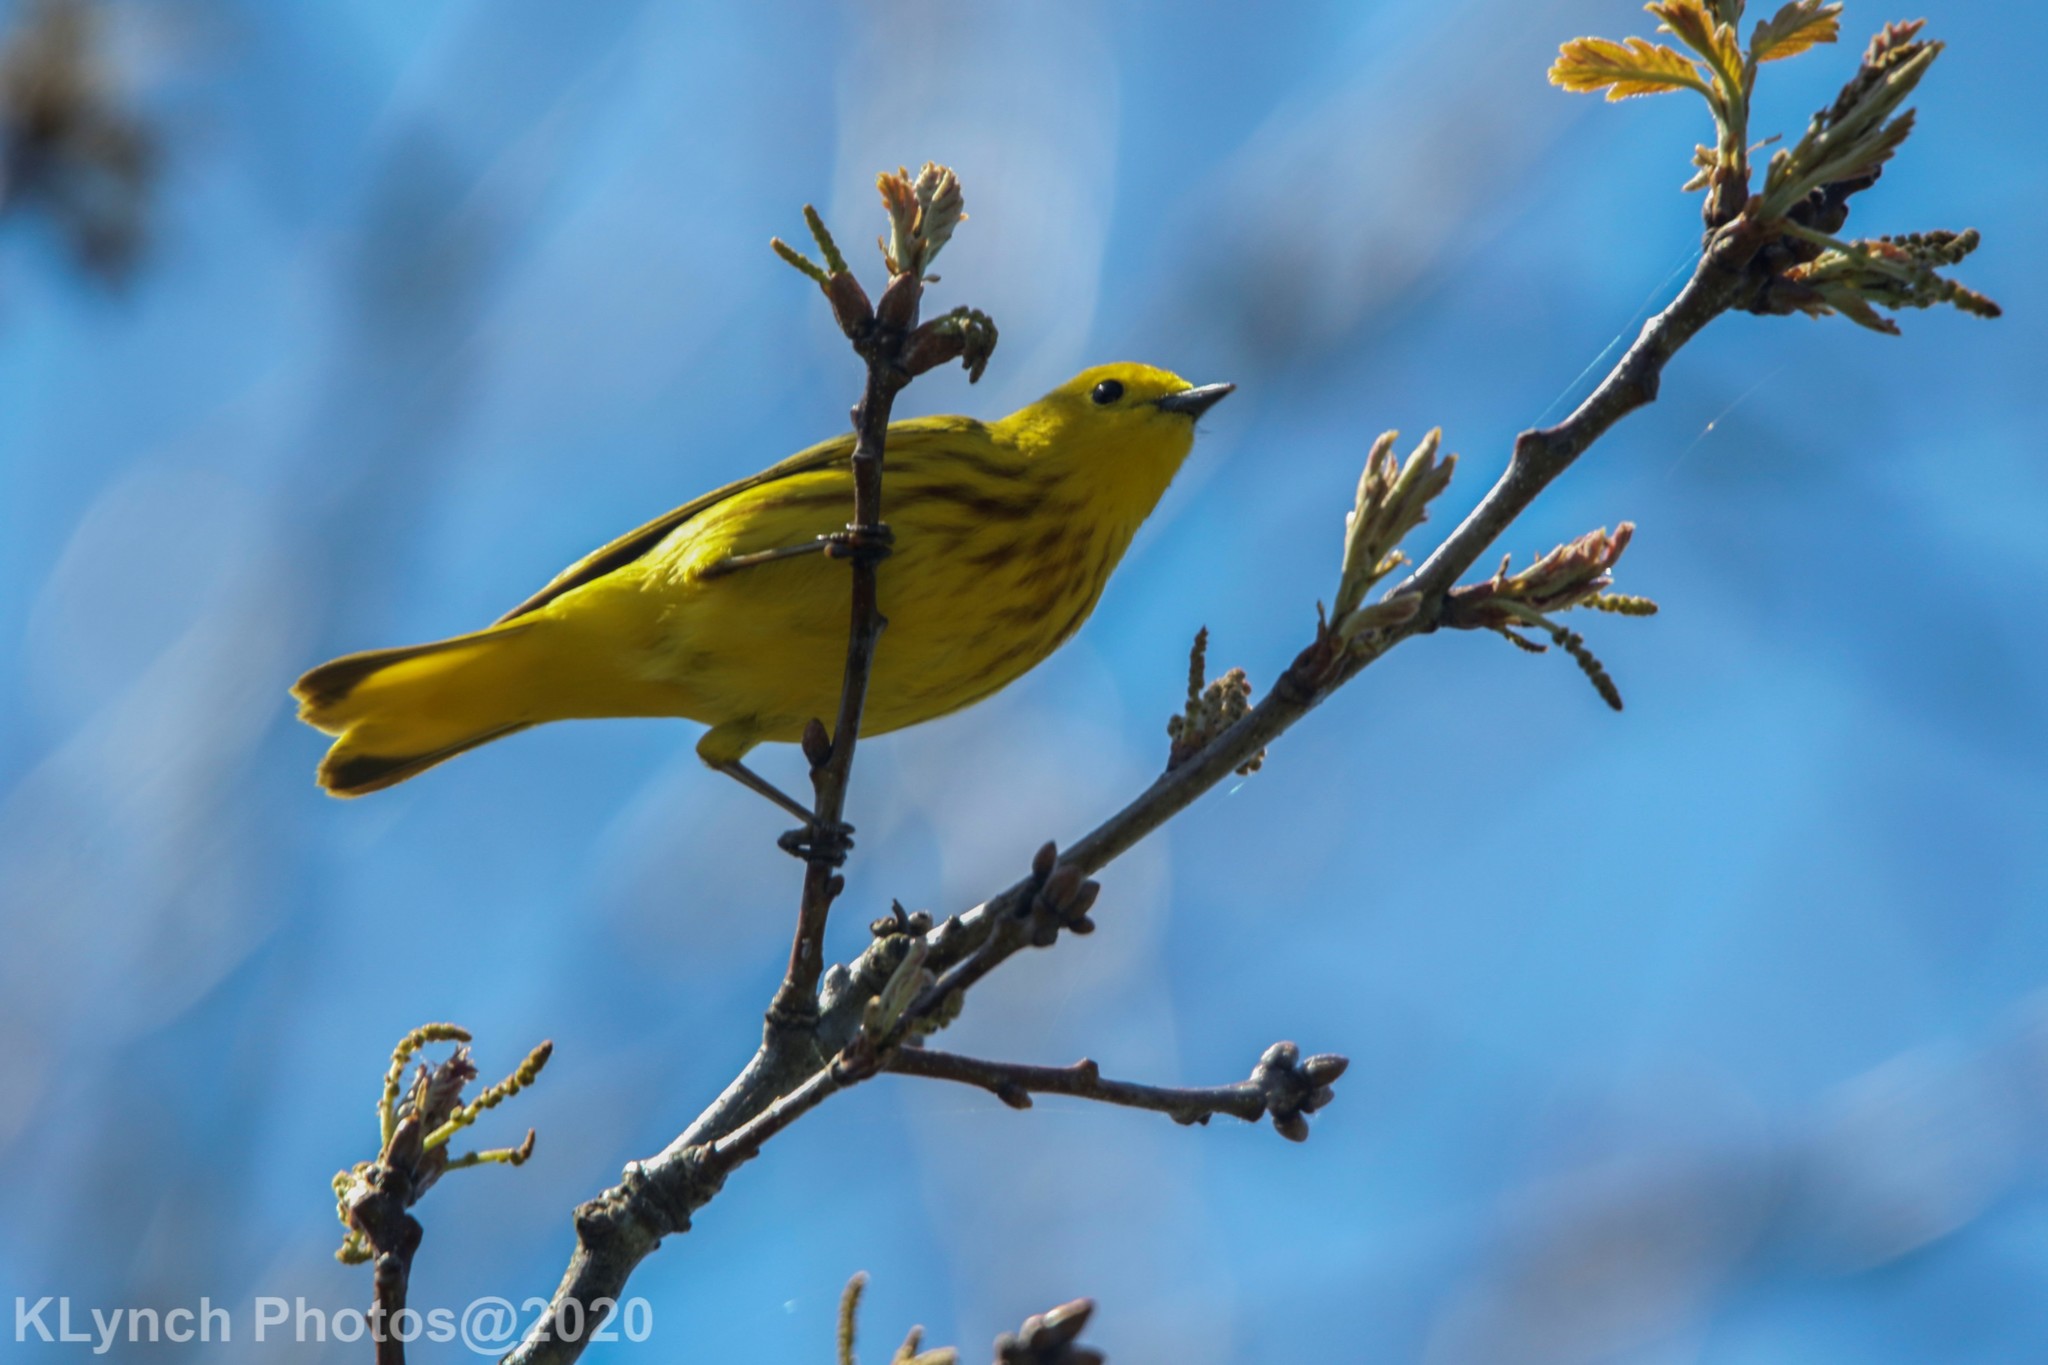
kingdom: Animalia
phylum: Chordata
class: Aves
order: Passeriformes
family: Parulidae
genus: Setophaga
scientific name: Setophaga petechia
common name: Yellow warbler
